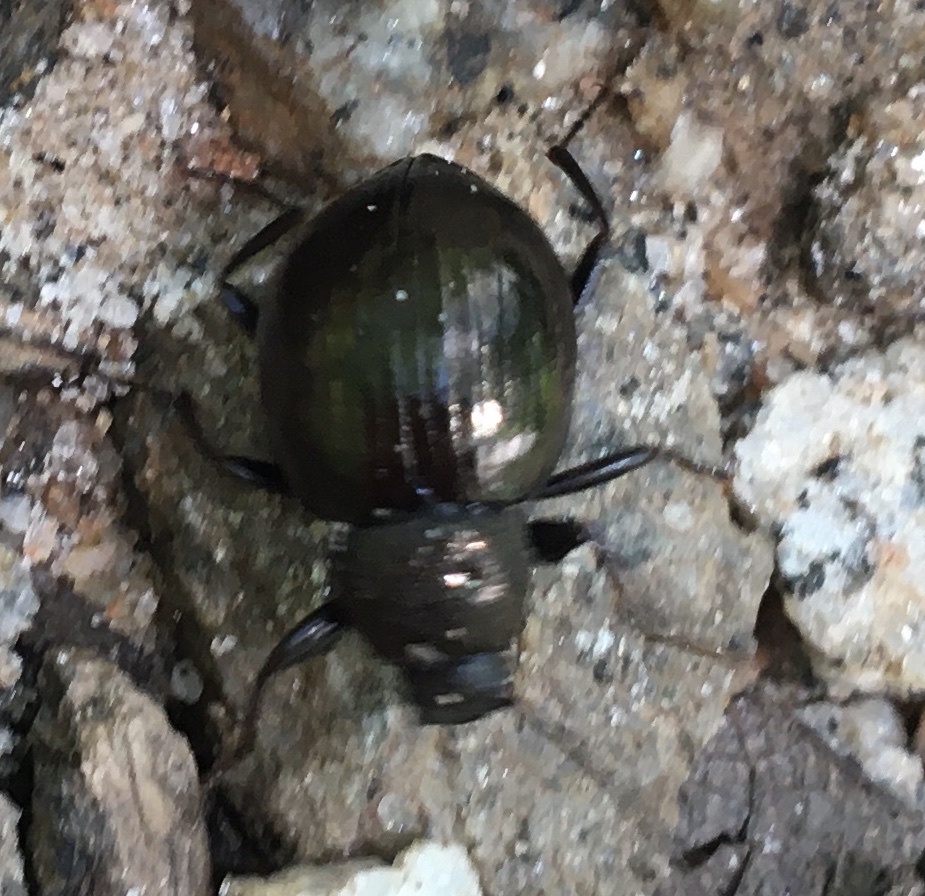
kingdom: Animalia
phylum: Arthropoda
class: Insecta
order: Coleoptera
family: Tenebrionidae
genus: Meracantha
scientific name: Meracantha contracta
